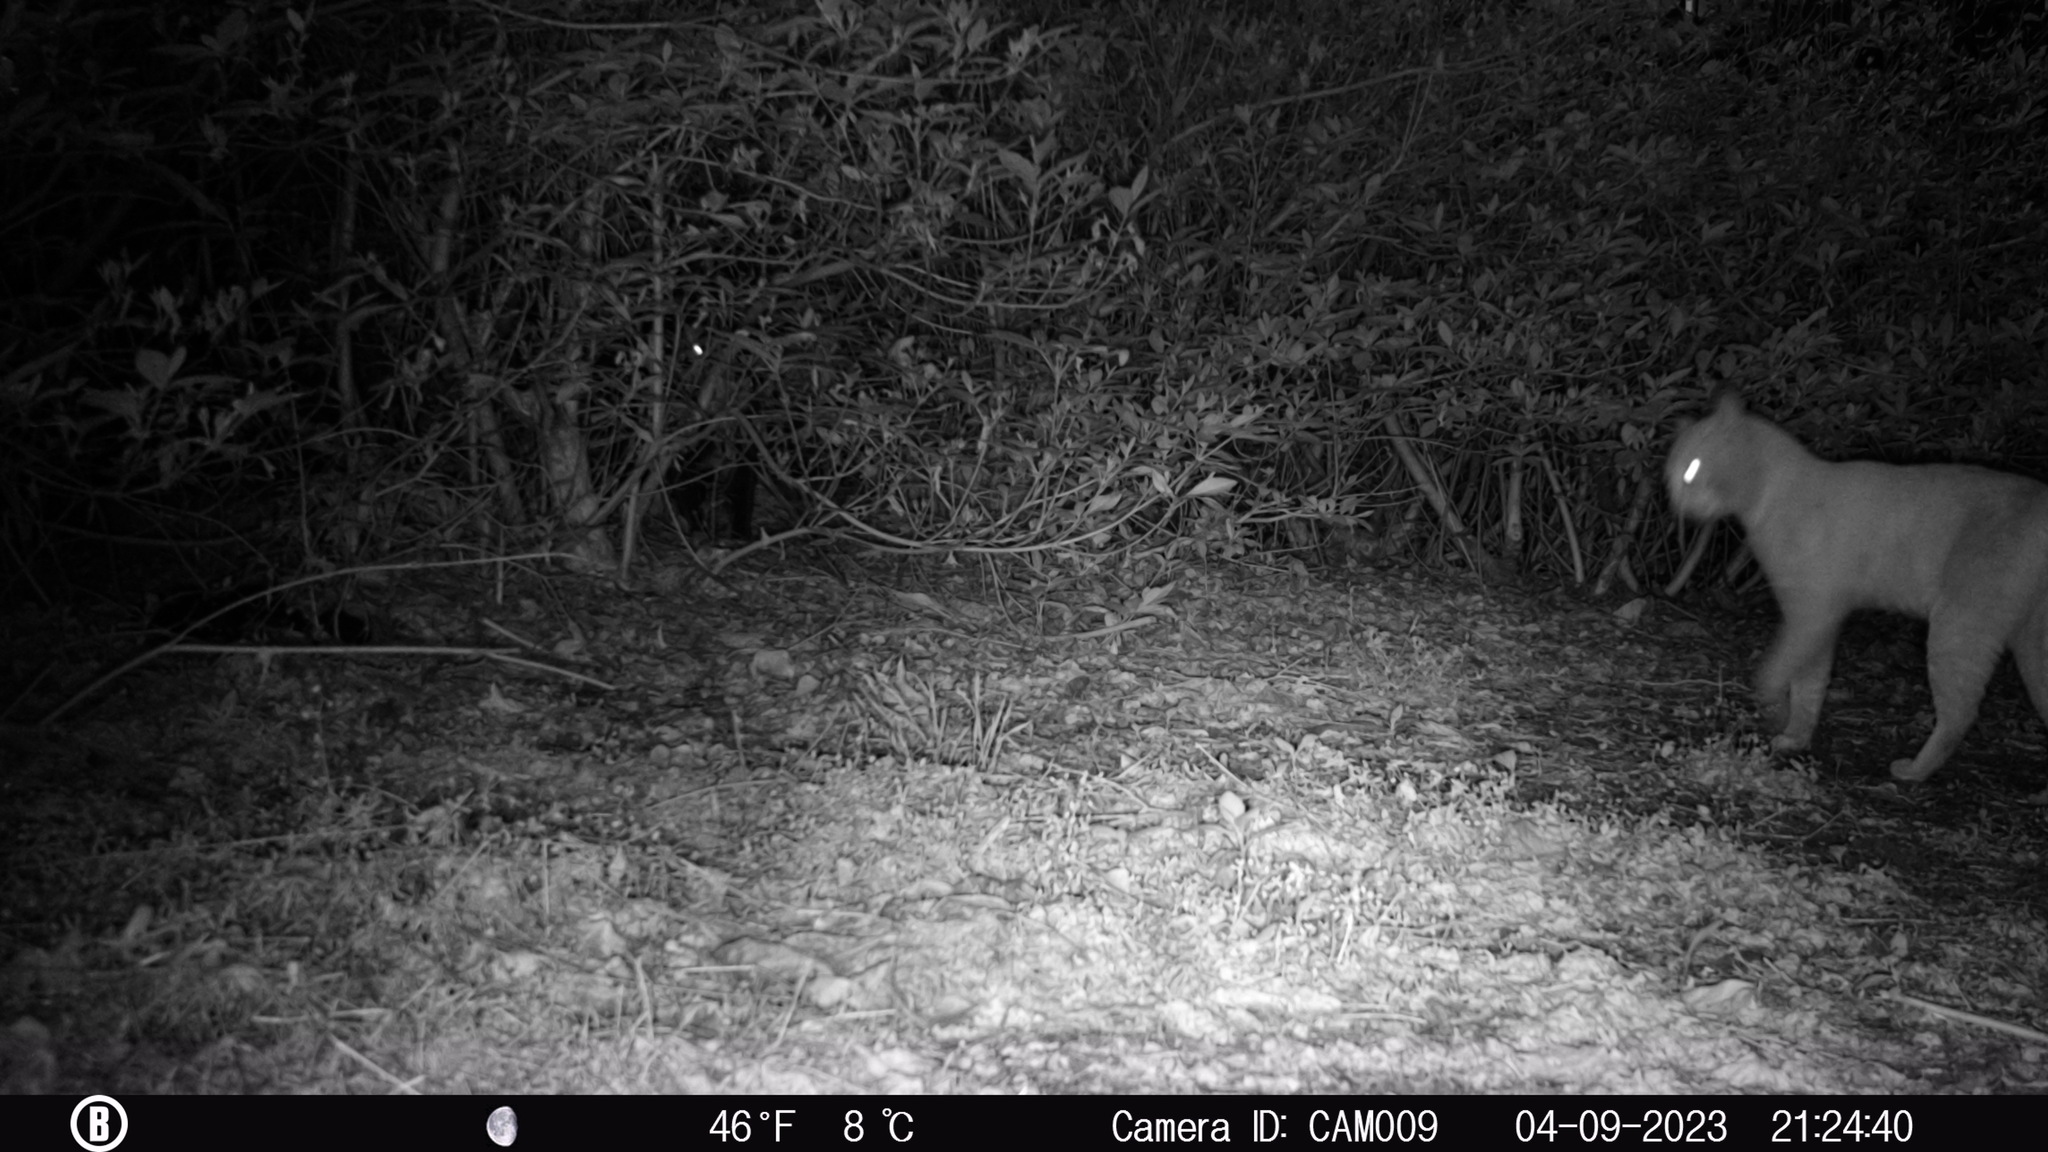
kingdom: Animalia
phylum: Chordata
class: Mammalia
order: Carnivora
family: Felidae
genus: Felis
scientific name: Felis catus
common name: Domestic cat
